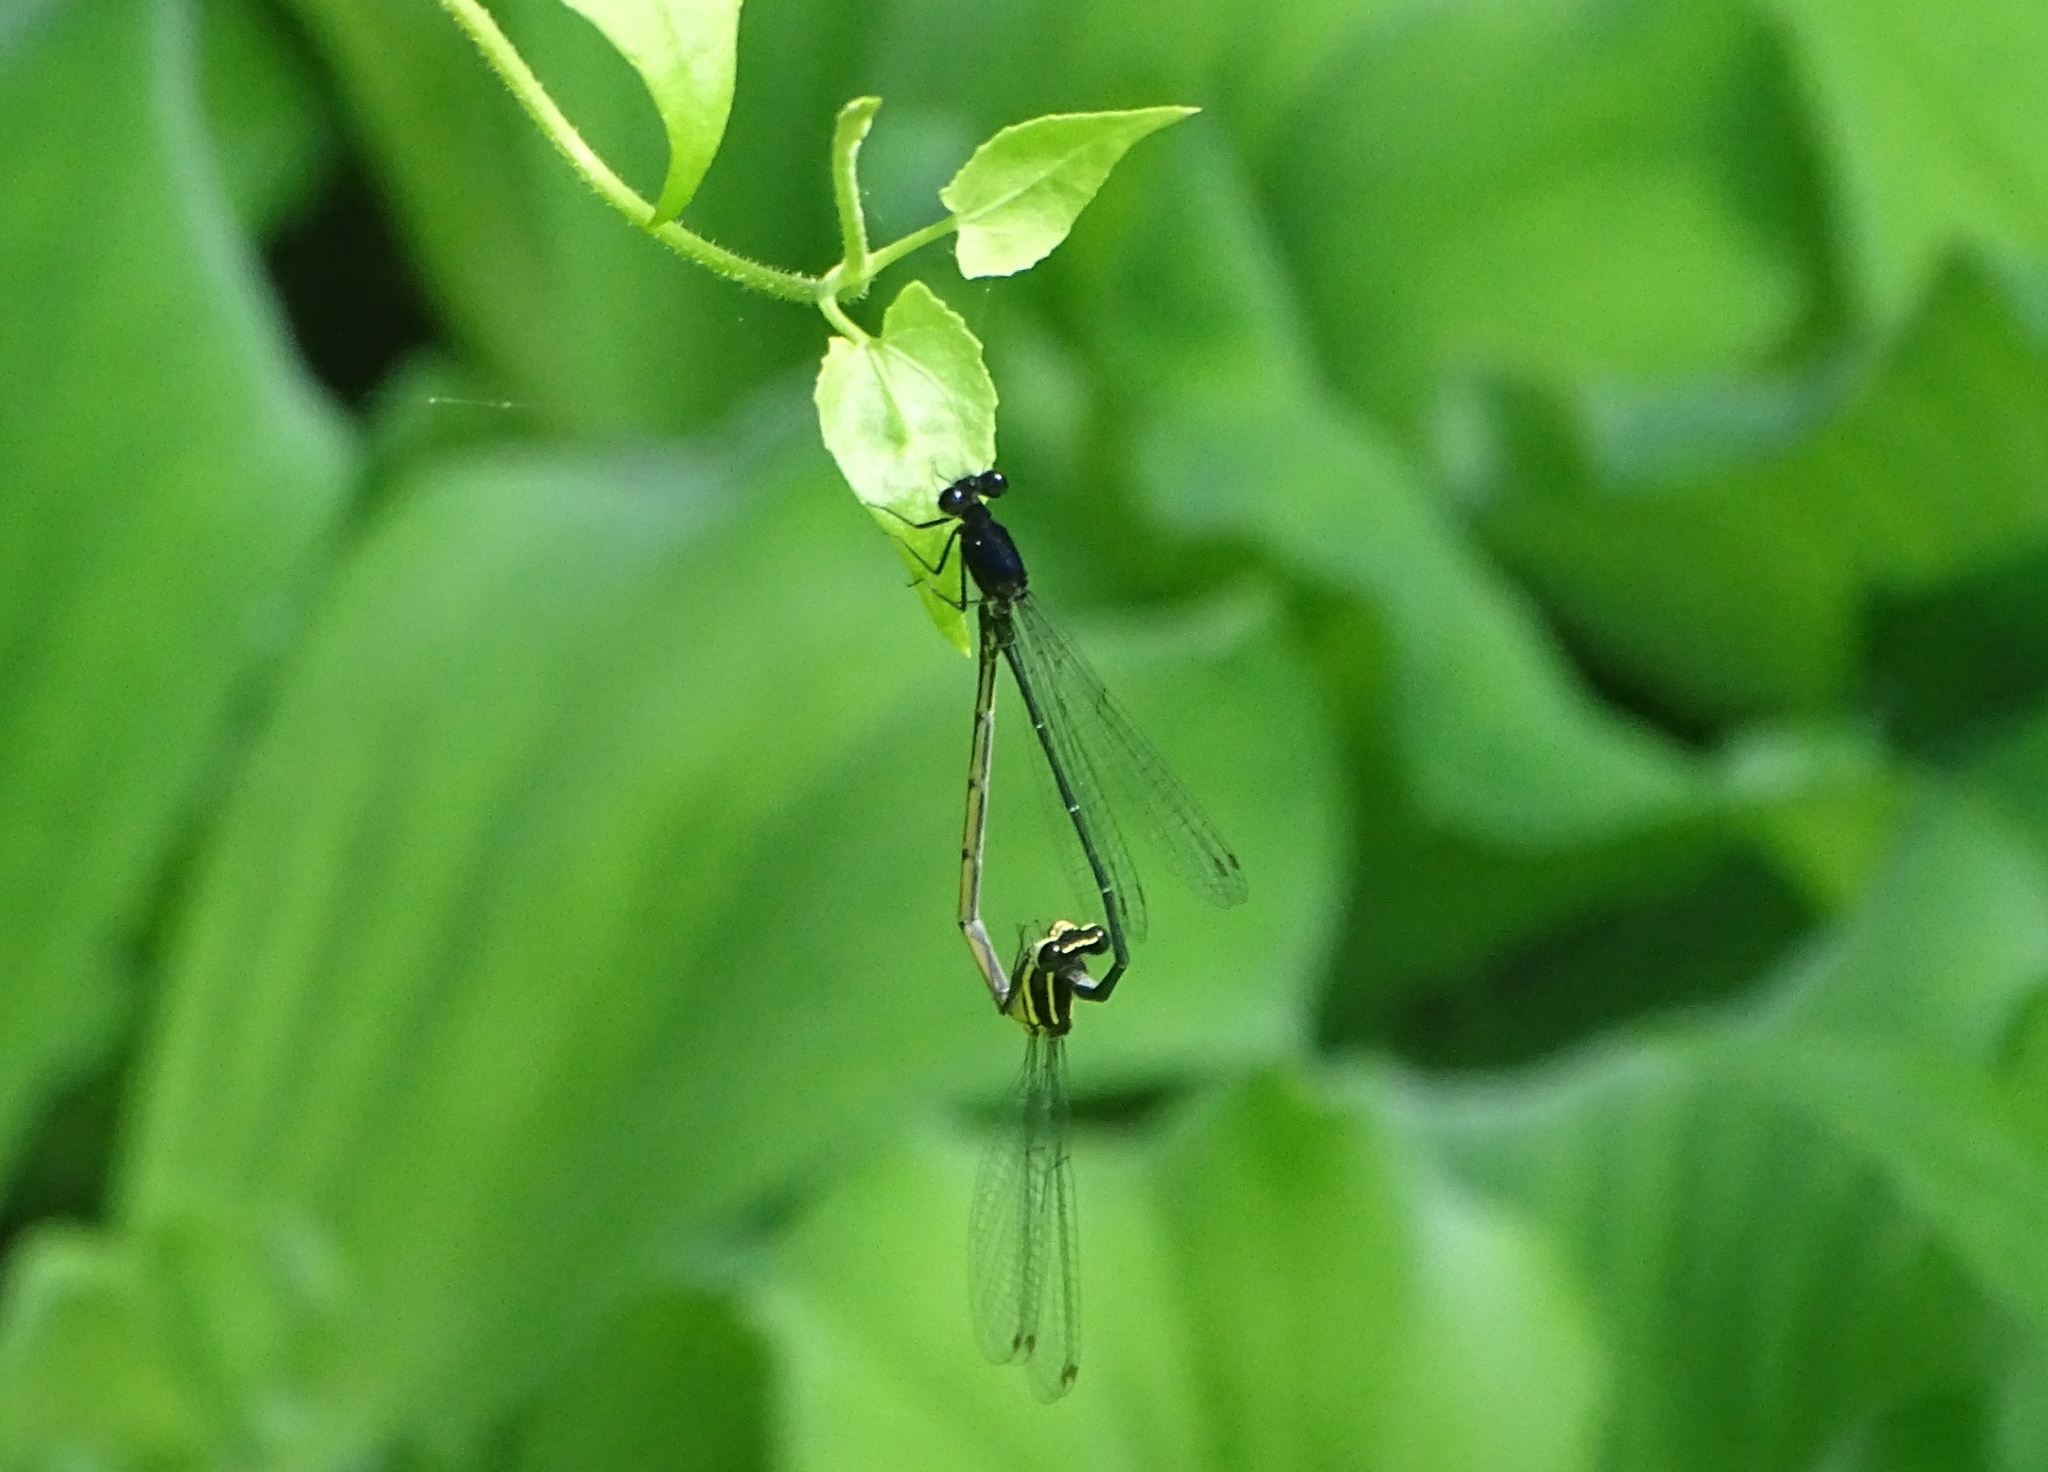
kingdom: Animalia
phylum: Arthropoda
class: Insecta
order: Odonata
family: Platycnemididae
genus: Onychargia
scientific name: Onychargia atrocyana
